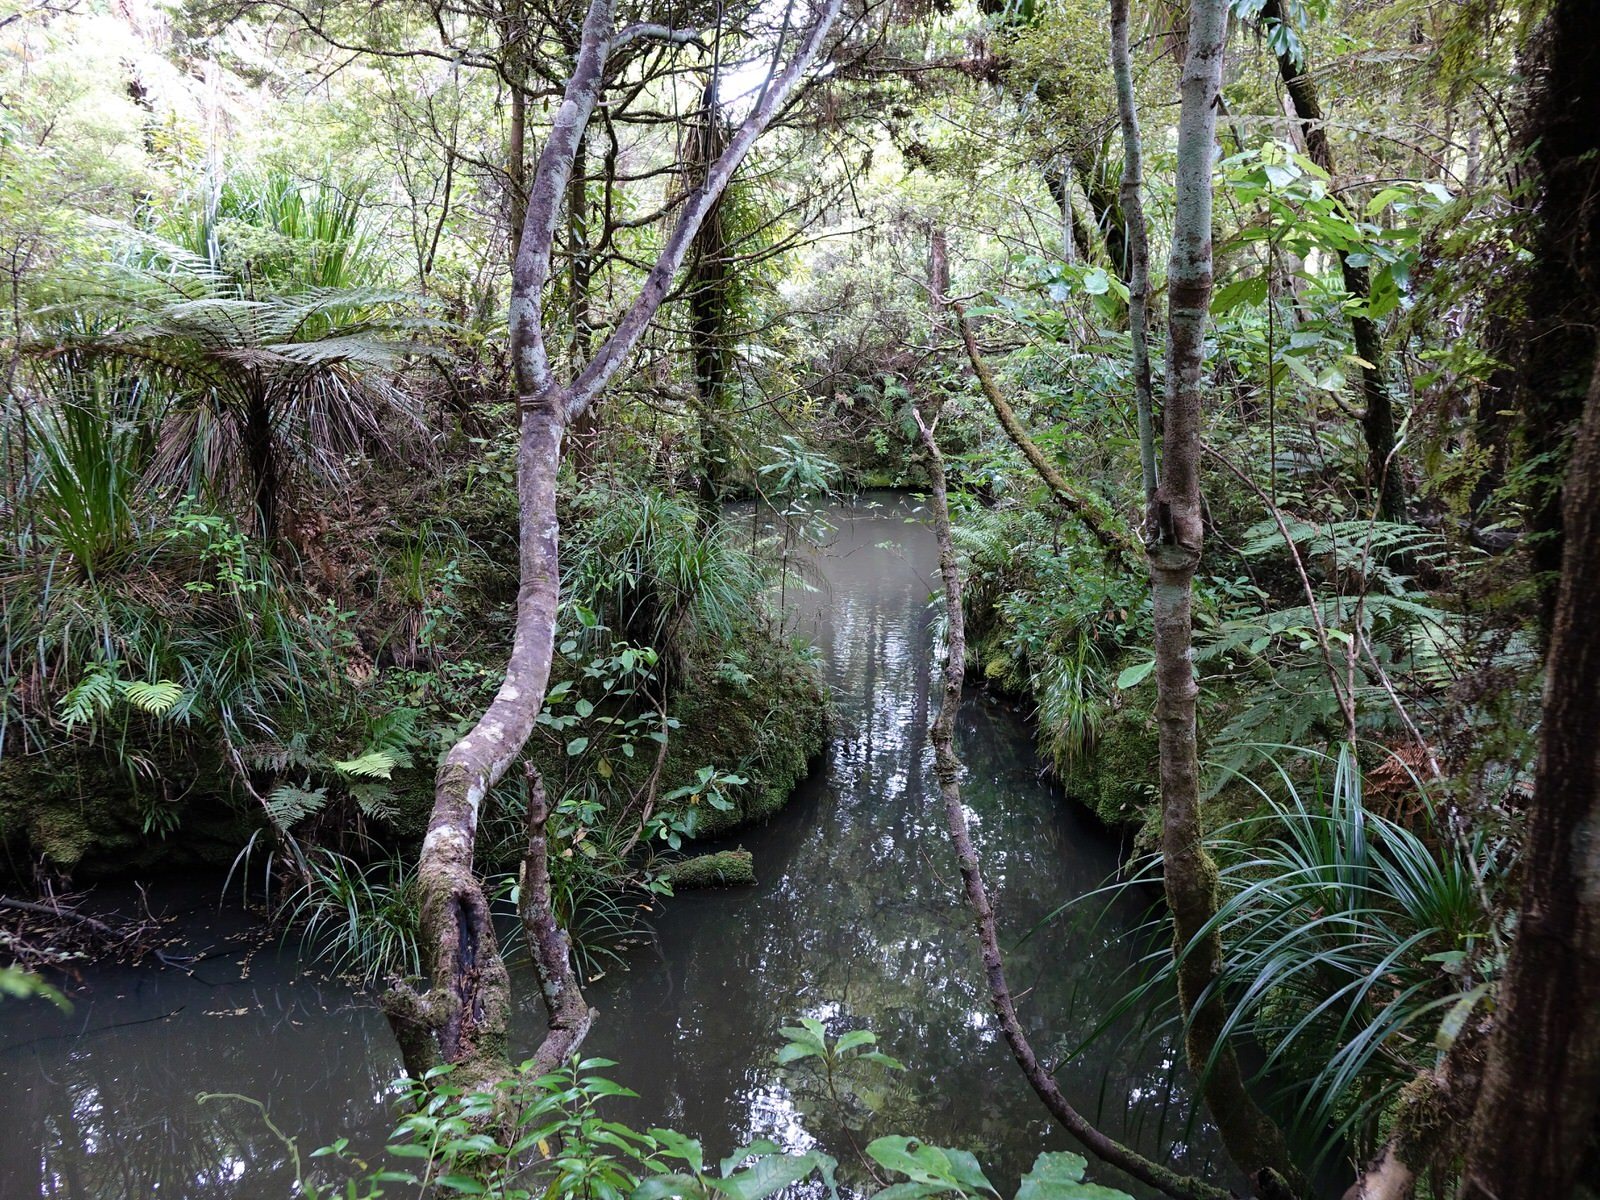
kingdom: Animalia
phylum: Chordata
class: Aves
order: Suliformes
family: Phalacrocoracidae
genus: Microcarbo
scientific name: Microcarbo melanoleucos
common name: Little pied cormorant
